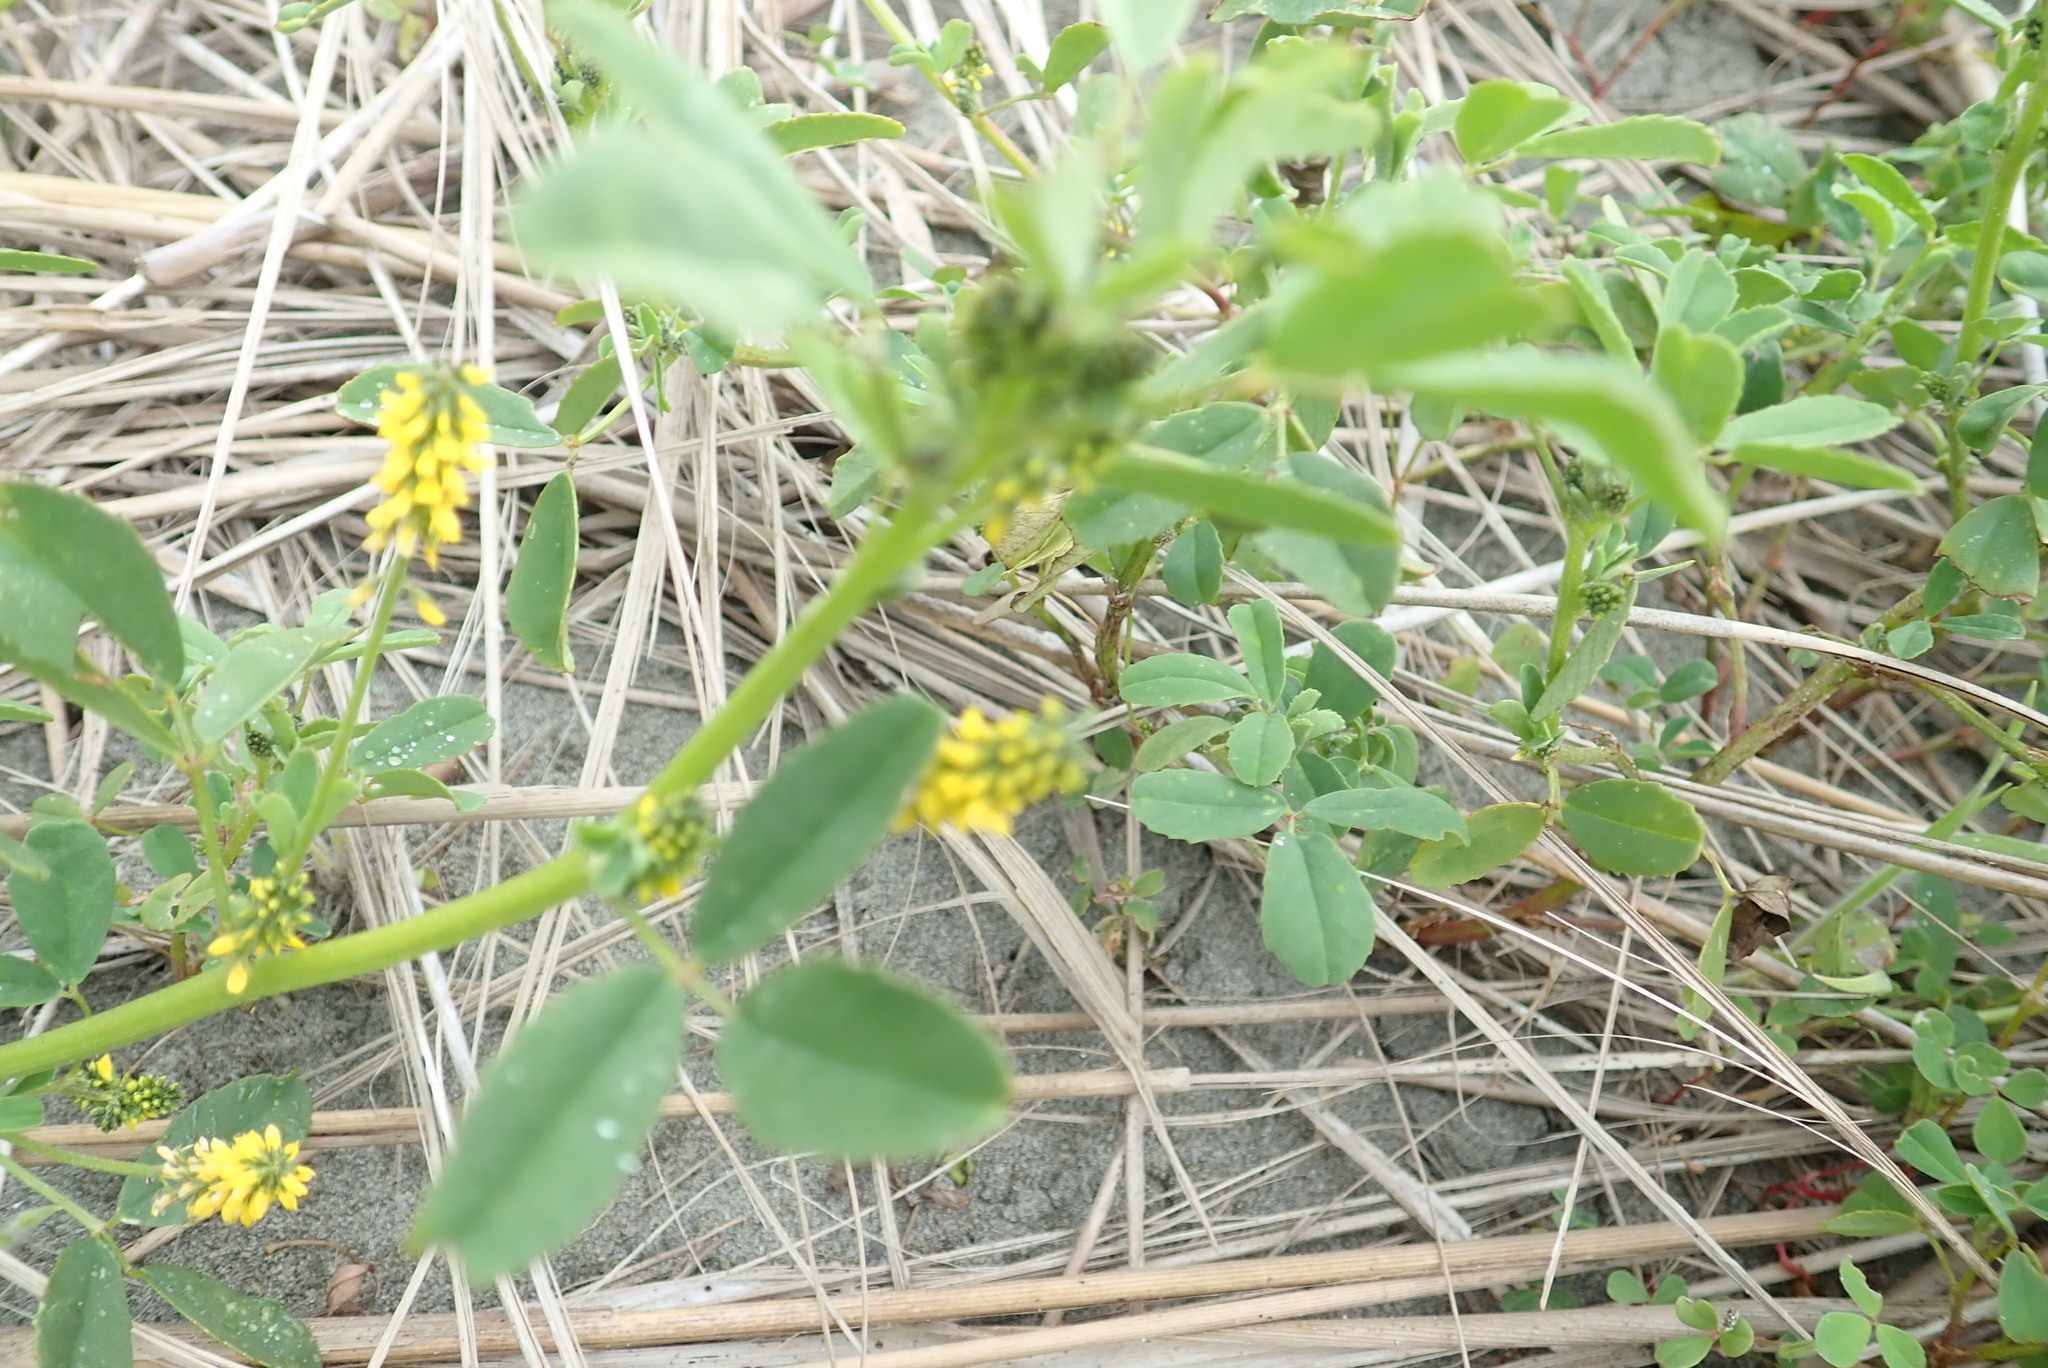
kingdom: Plantae
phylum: Tracheophyta
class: Magnoliopsida
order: Fabales
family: Fabaceae
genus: Melilotus
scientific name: Melilotus indicus
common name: Small melilot
